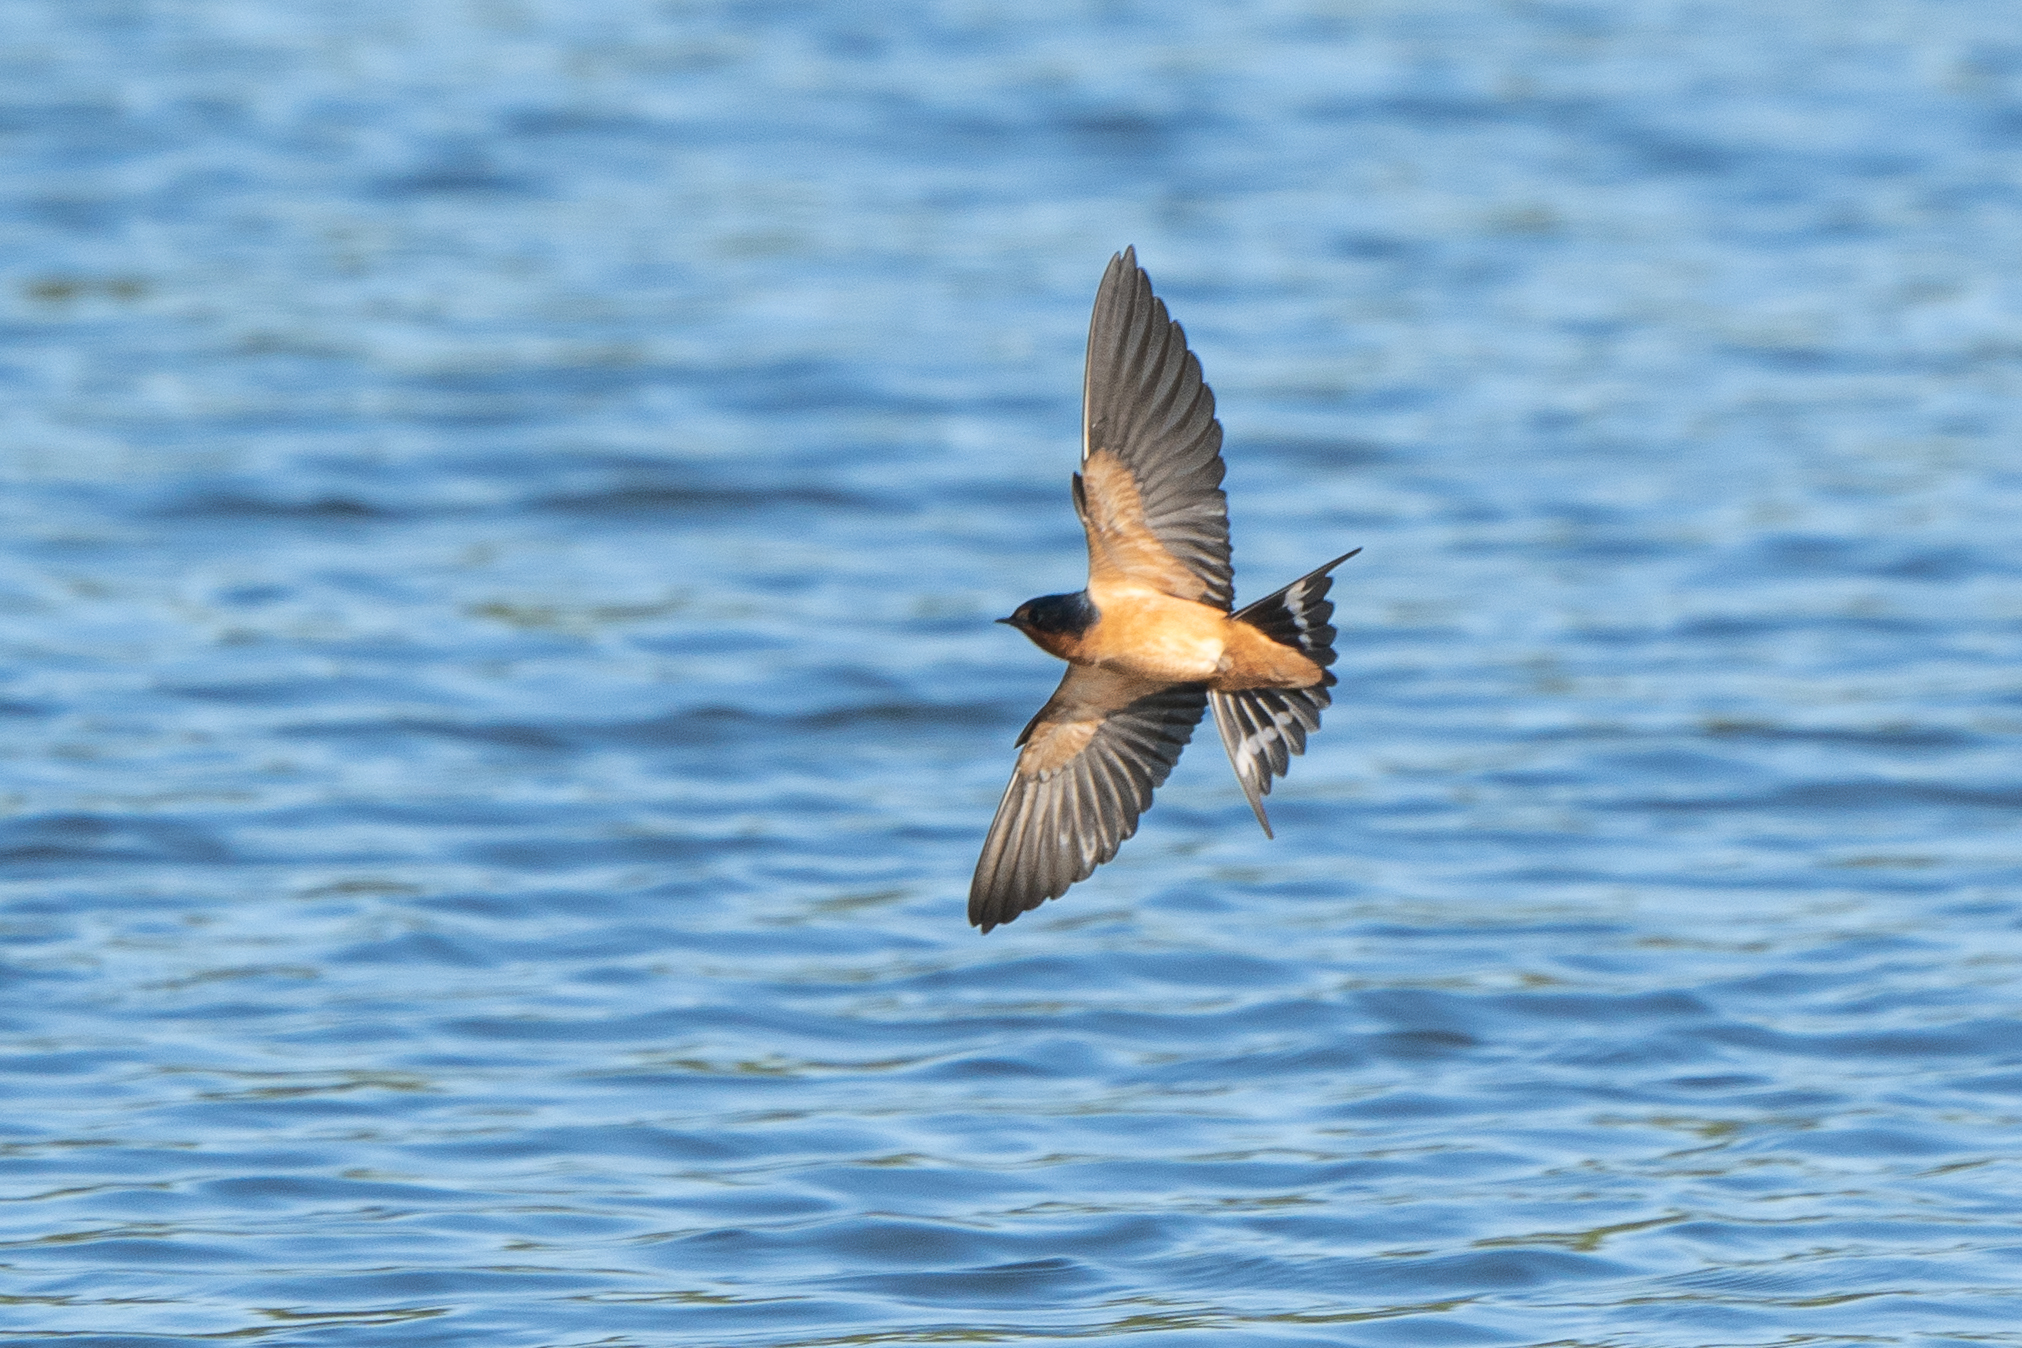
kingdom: Animalia
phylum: Chordata
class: Aves
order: Passeriformes
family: Hirundinidae
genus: Hirundo
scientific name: Hirundo rustica
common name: Barn swallow
